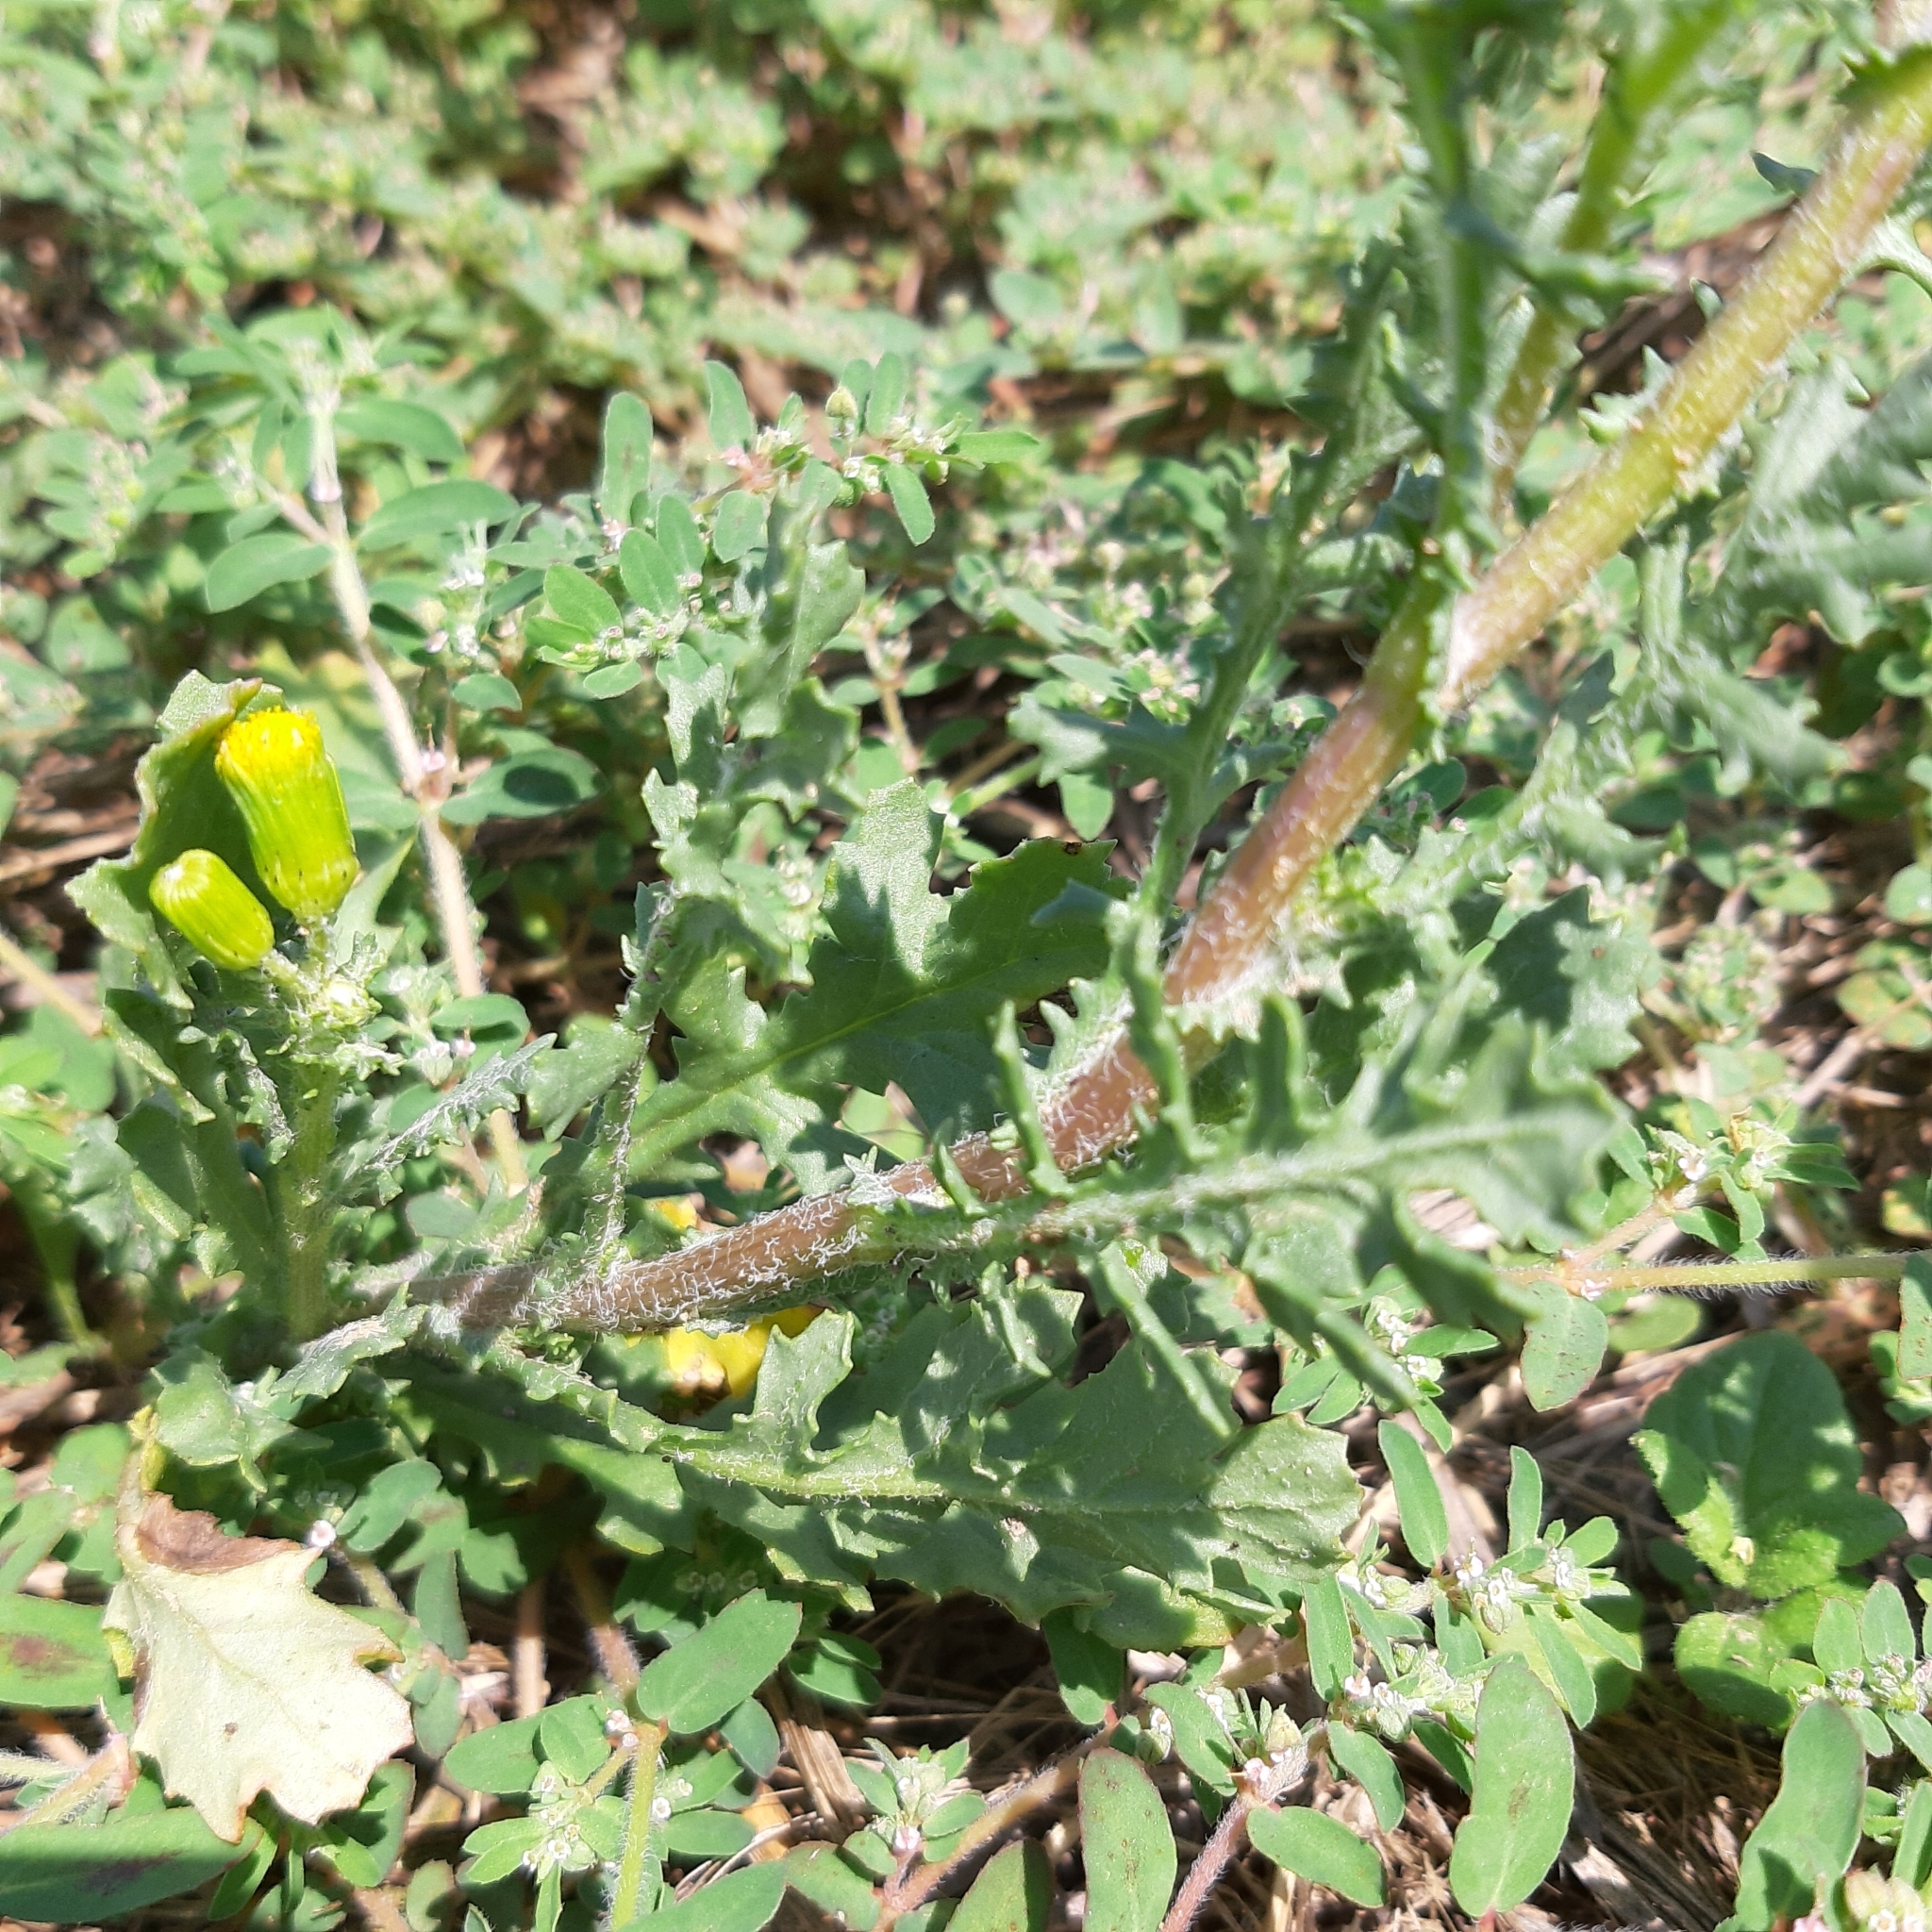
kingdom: Plantae
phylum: Tracheophyta
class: Magnoliopsida
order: Asterales
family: Asteraceae
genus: Senecio
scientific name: Senecio vulgaris
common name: Old-man-in-the-spring
